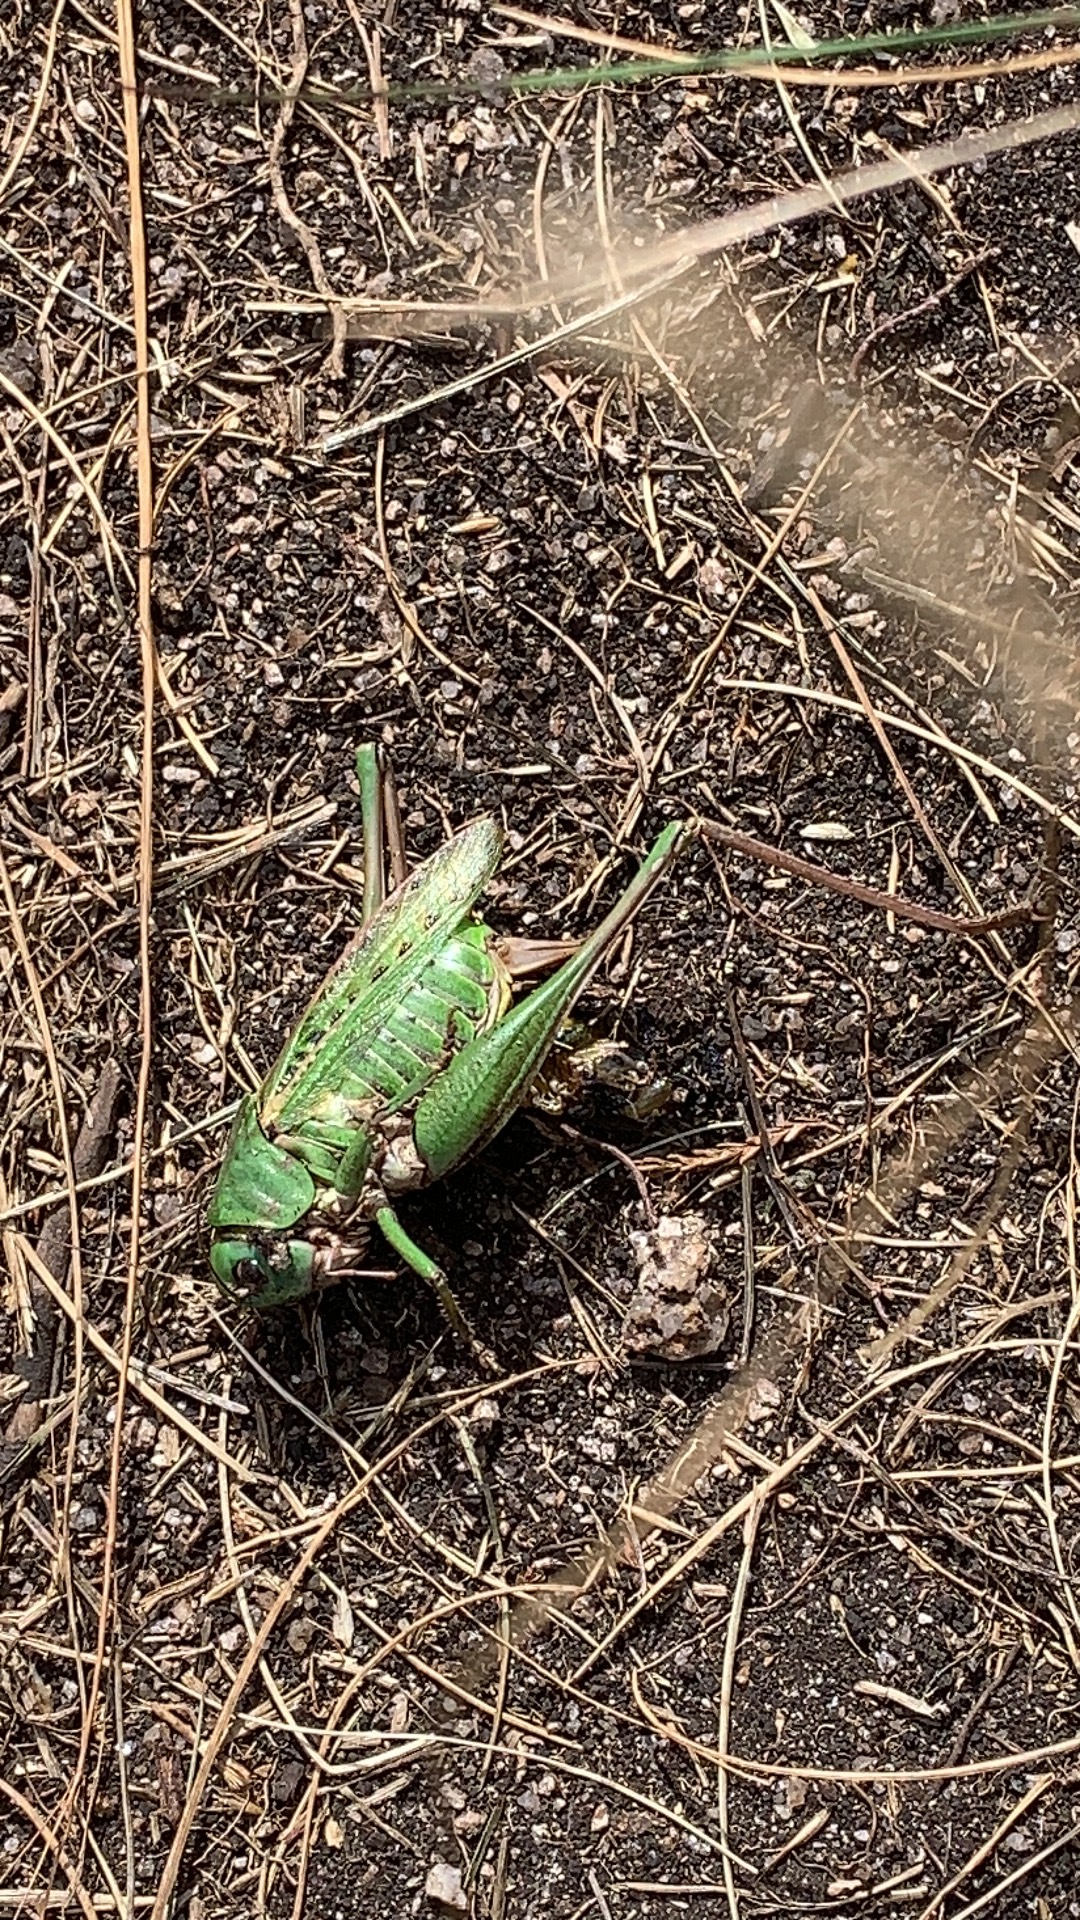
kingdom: Animalia
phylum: Arthropoda
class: Insecta
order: Orthoptera
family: Tettigoniidae
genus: Decticus
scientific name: Decticus verrucivorus
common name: Wart-biter
